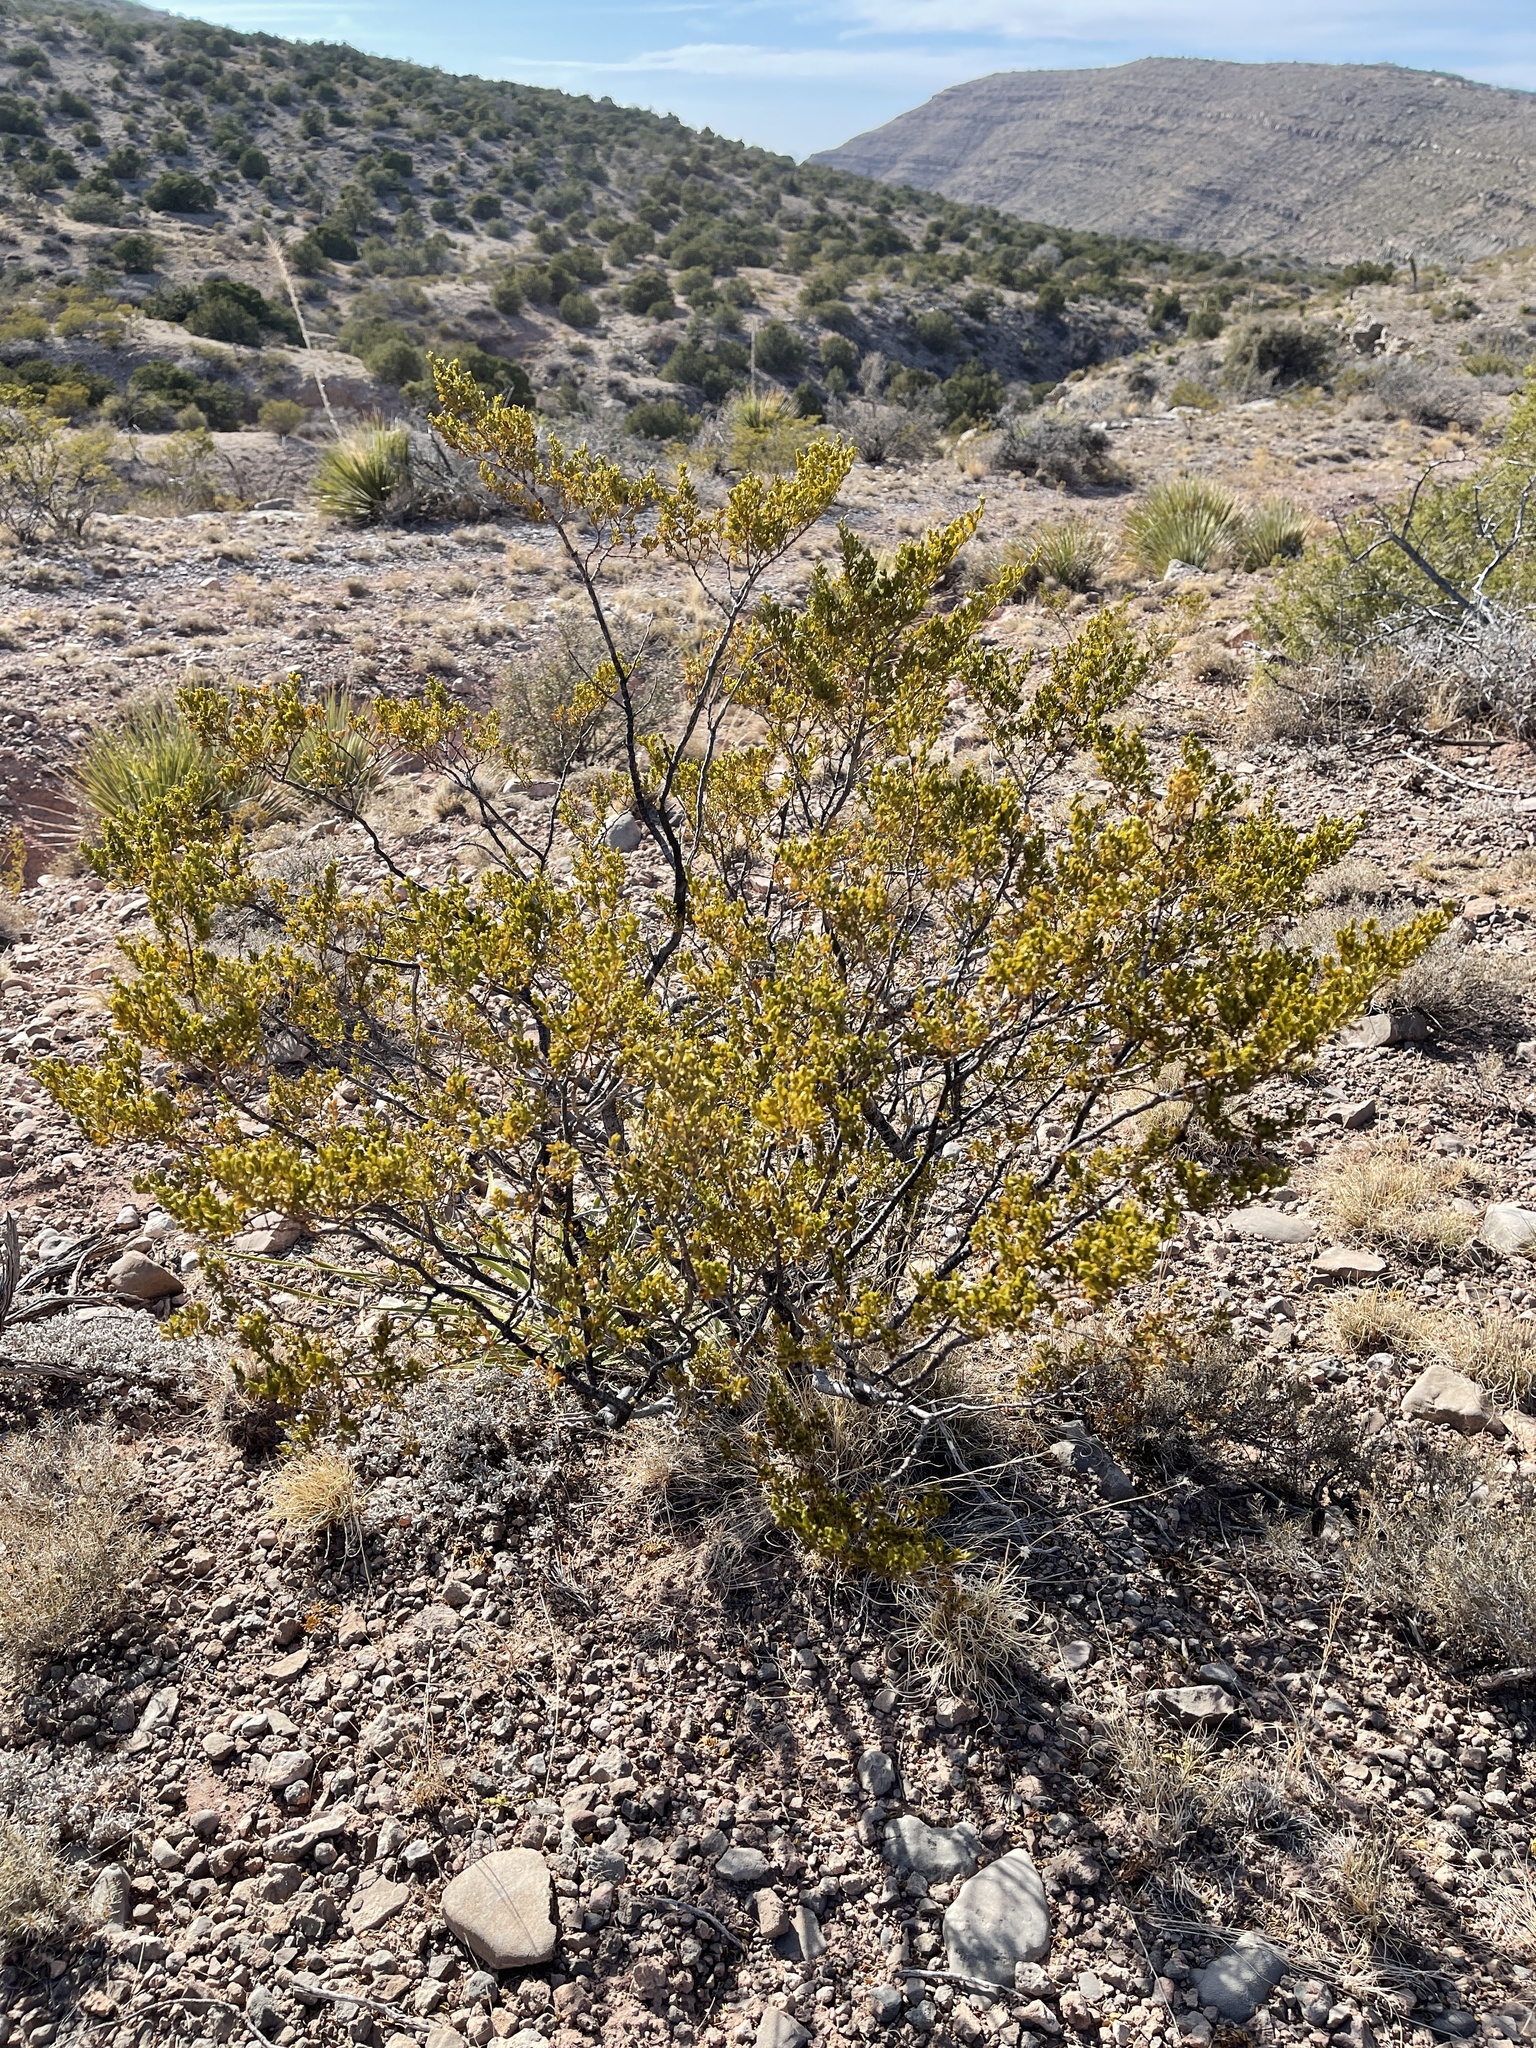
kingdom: Plantae
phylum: Tracheophyta
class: Magnoliopsida
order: Zygophyllales
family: Zygophyllaceae
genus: Larrea
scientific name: Larrea tridentata
